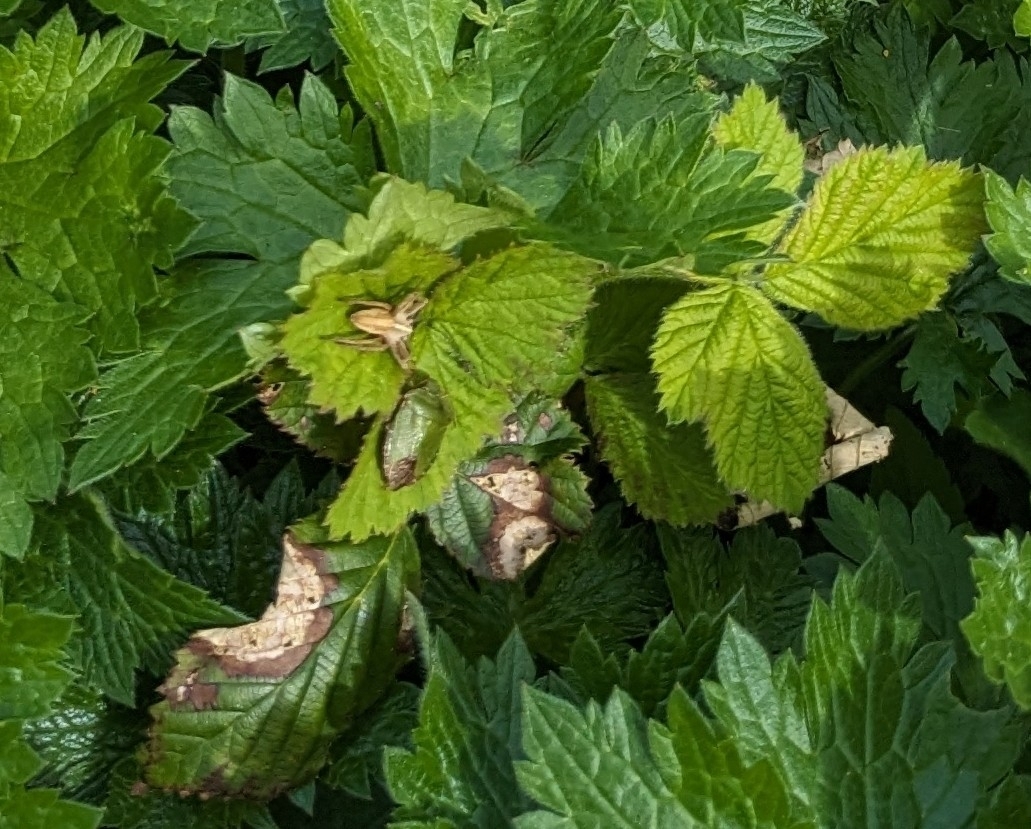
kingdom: Animalia
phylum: Arthropoda
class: Insecta
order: Hemiptera
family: Pentatomidae
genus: Palomena
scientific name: Palomena prasina
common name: Green shieldbug
